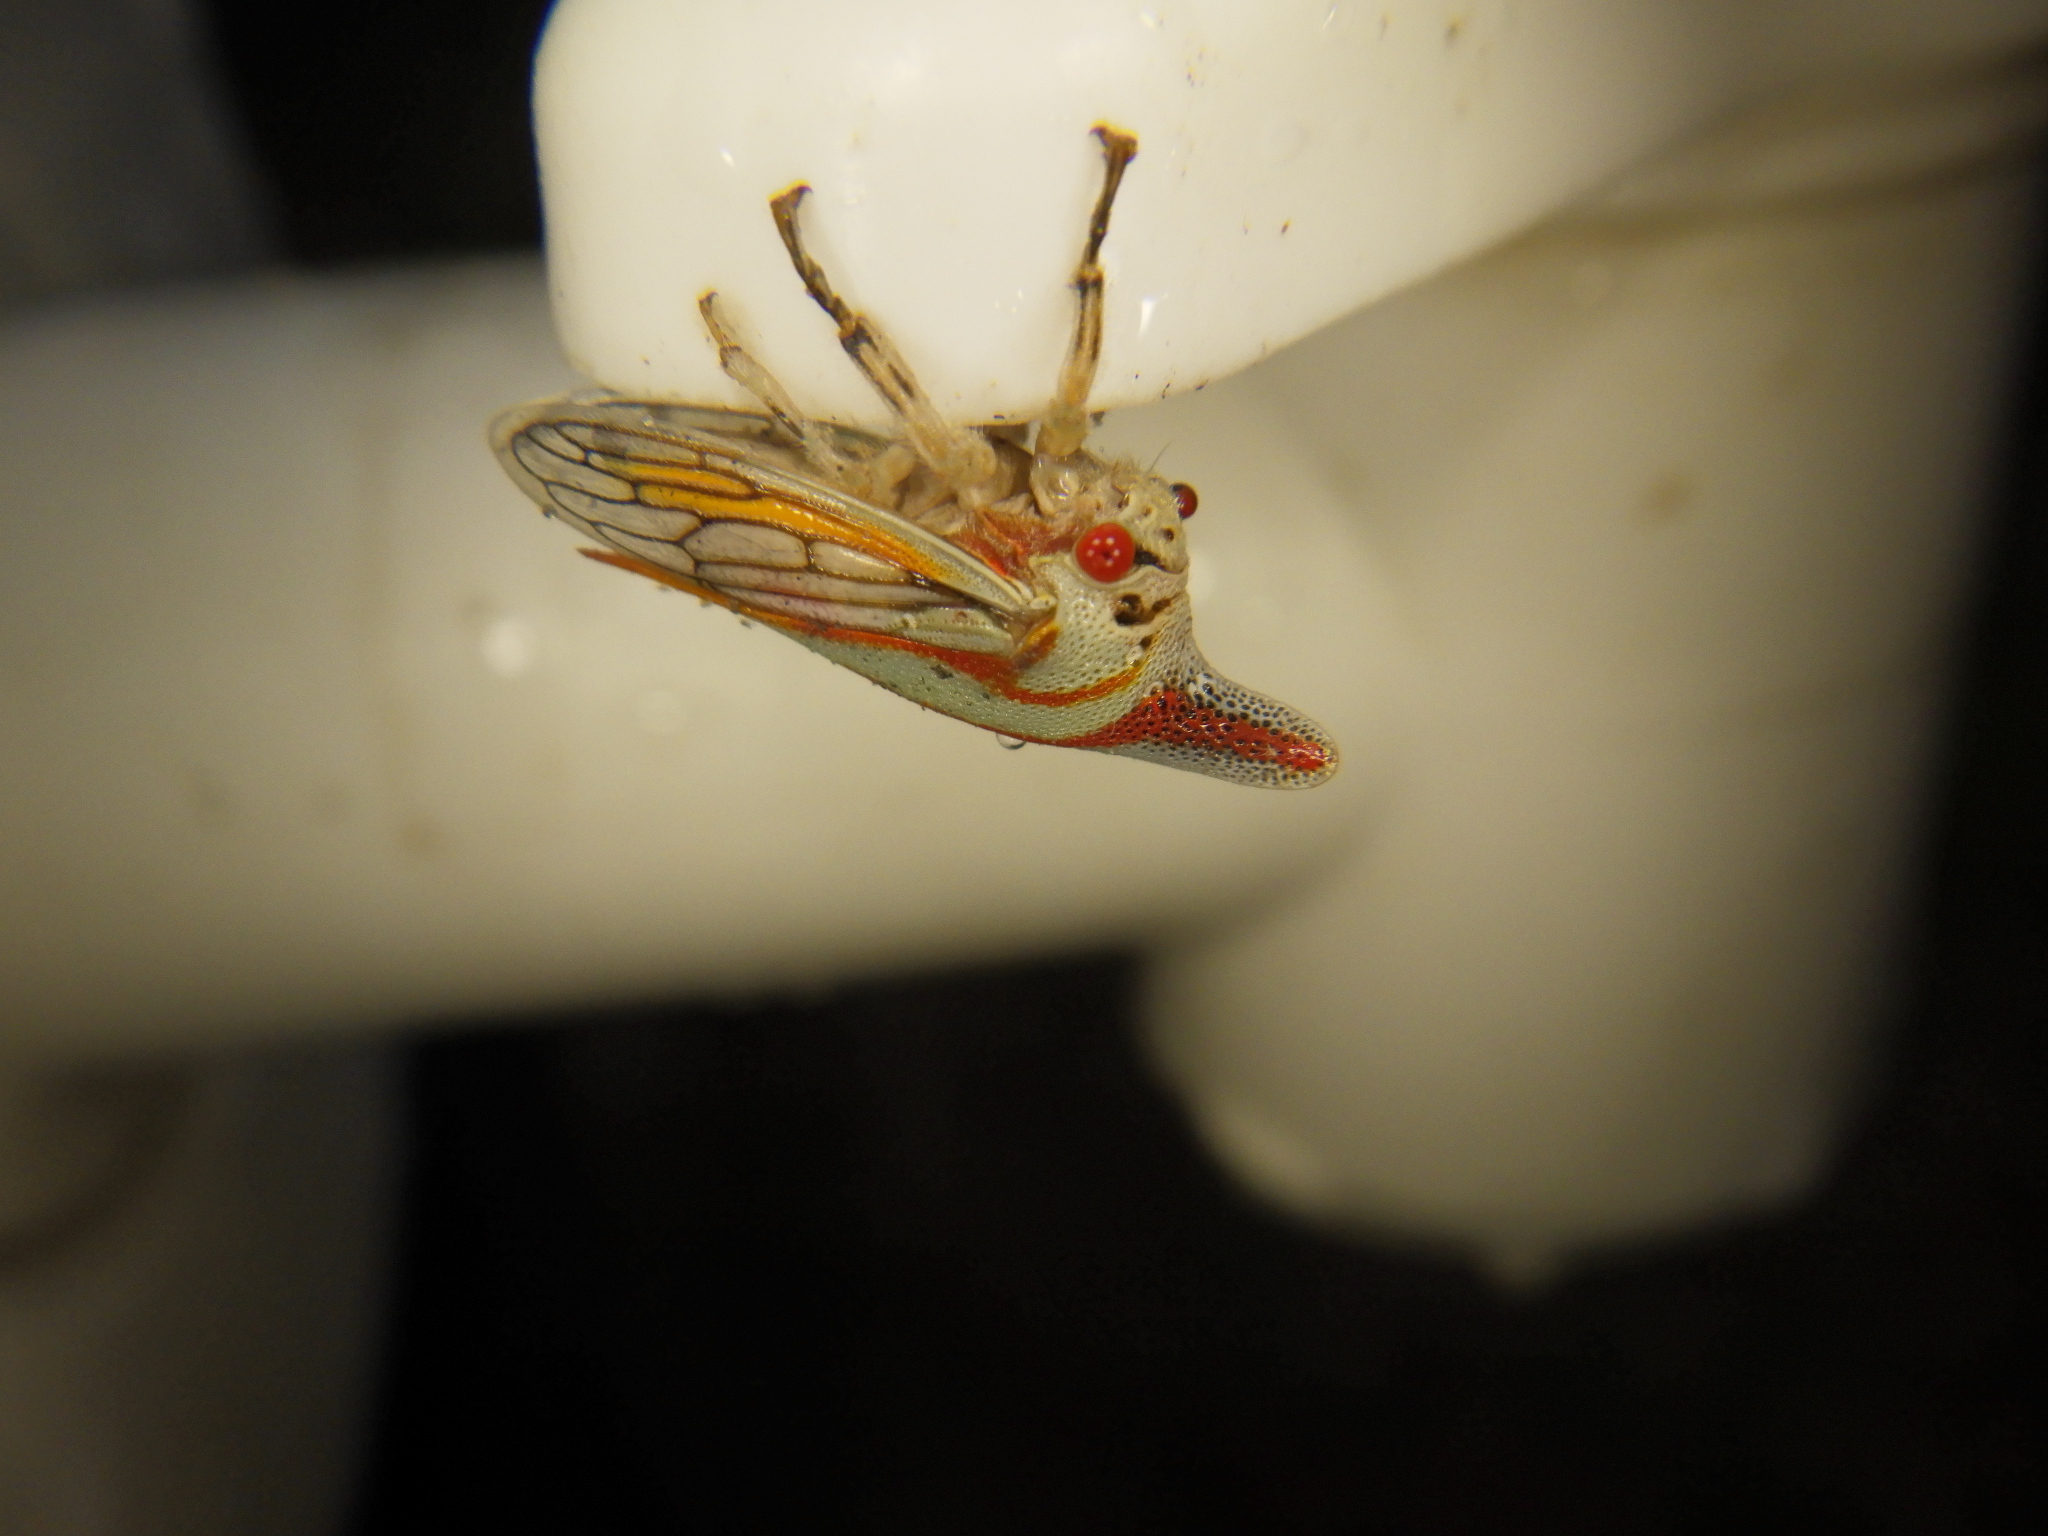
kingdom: Animalia
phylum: Arthropoda
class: Insecta
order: Hemiptera
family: Membracidae
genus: Platycotis
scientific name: Platycotis vittatus
